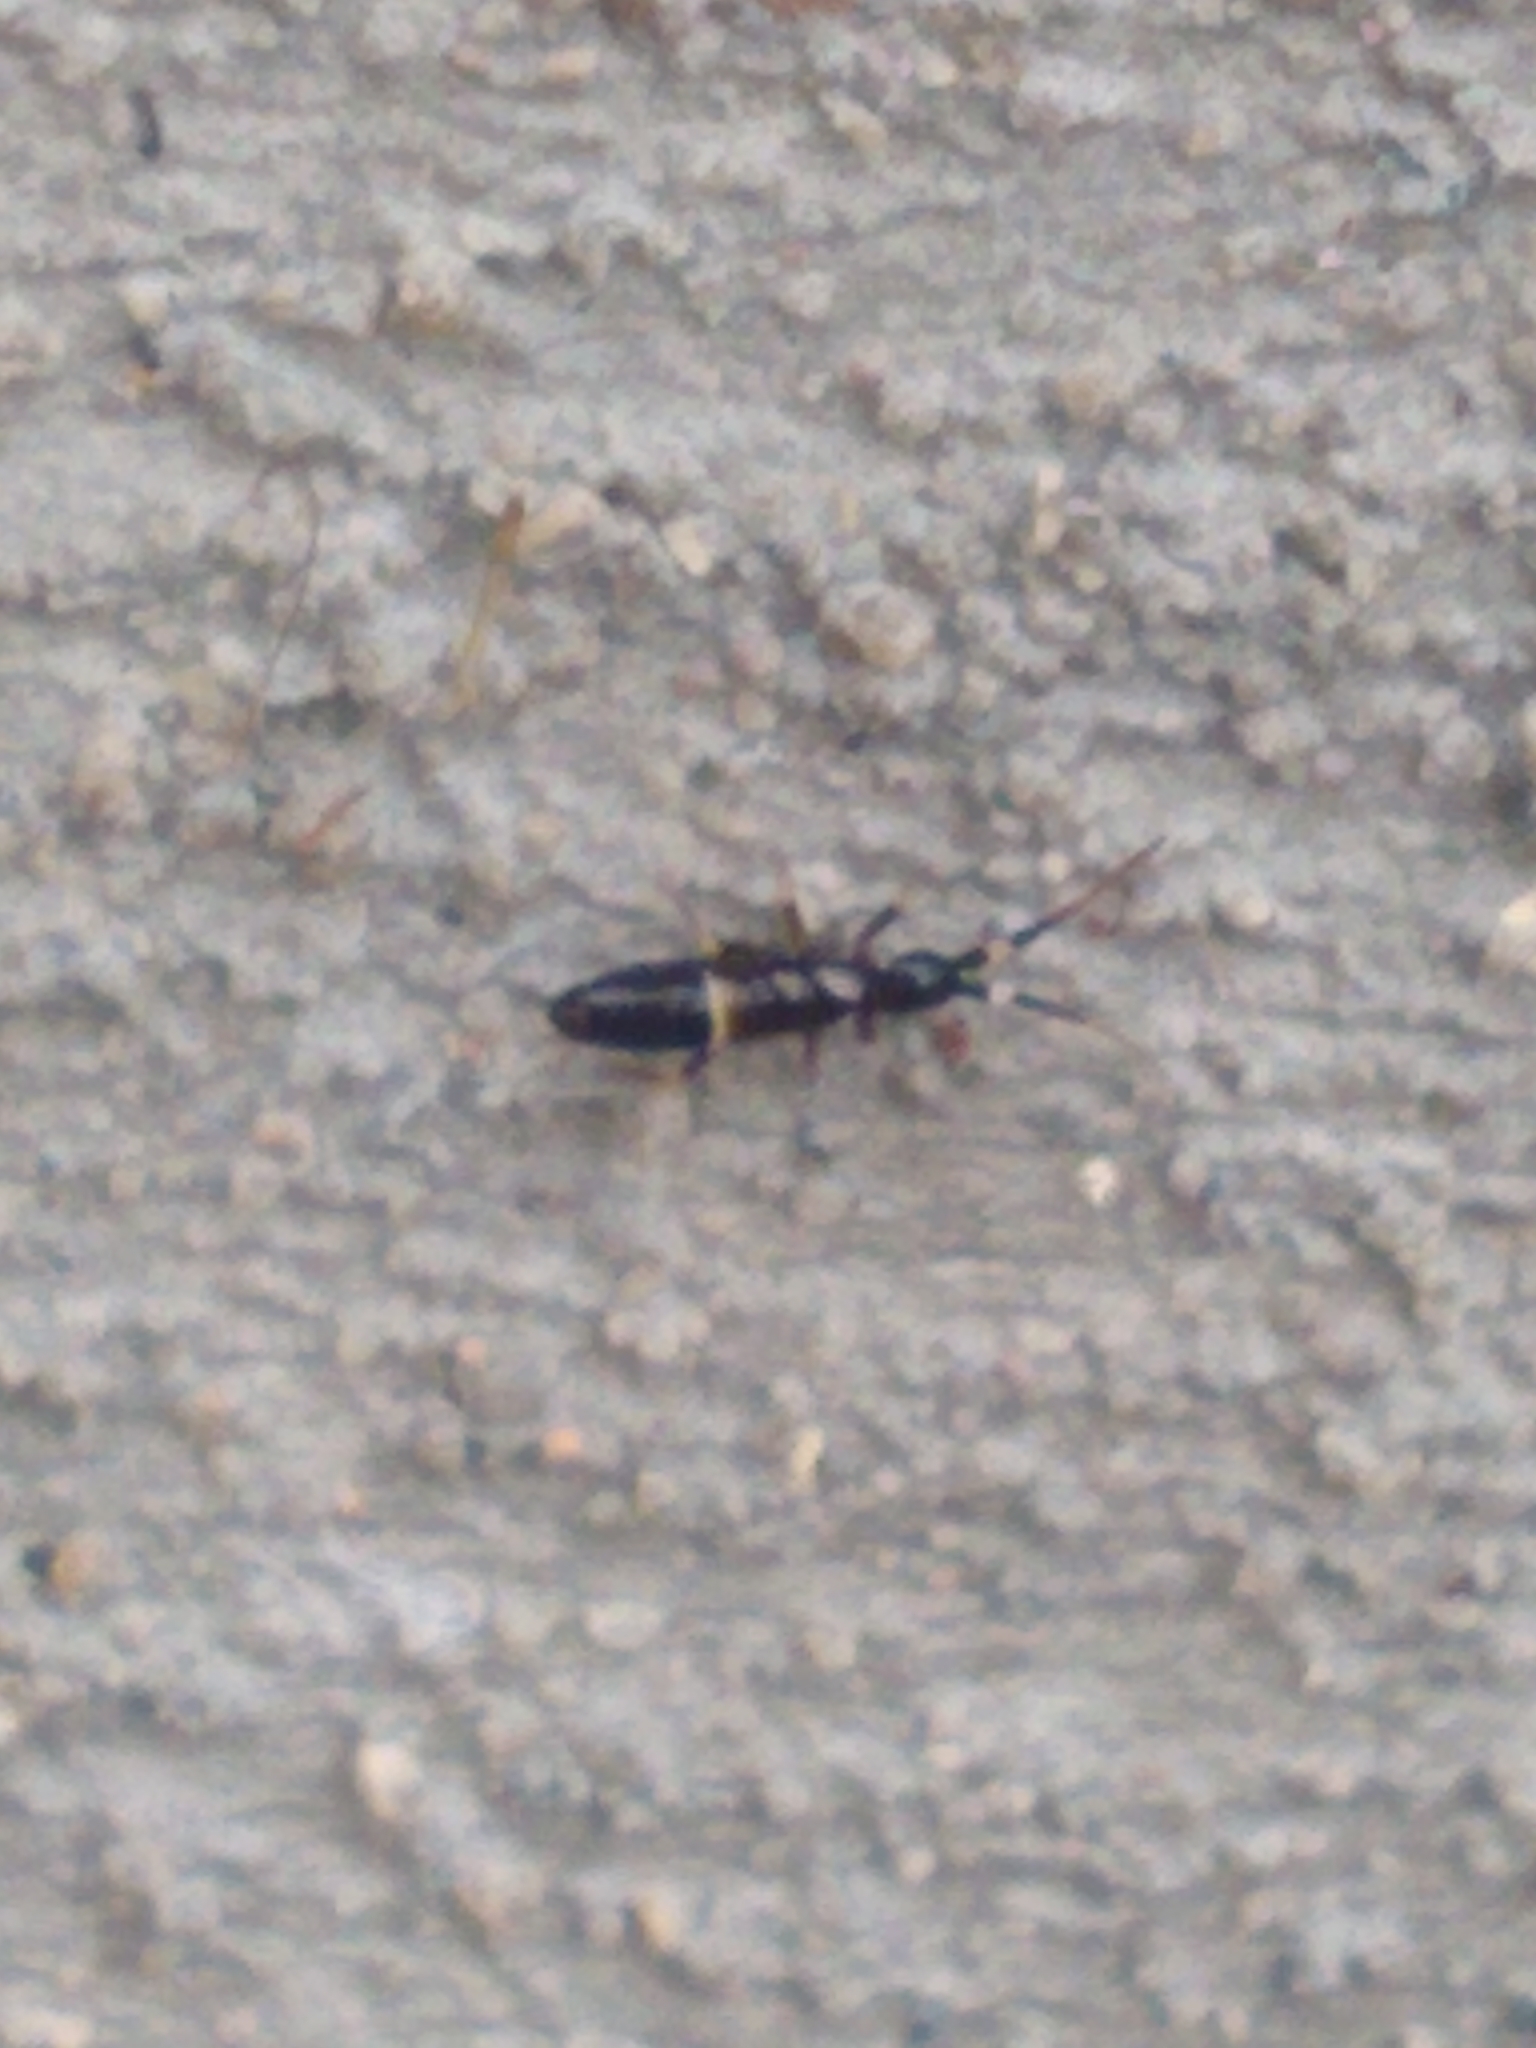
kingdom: Animalia
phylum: Arthropoda
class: Collembola
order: Entomobryomorpha
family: Orchesellidae
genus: Orchesella
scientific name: Orchesella cincta
